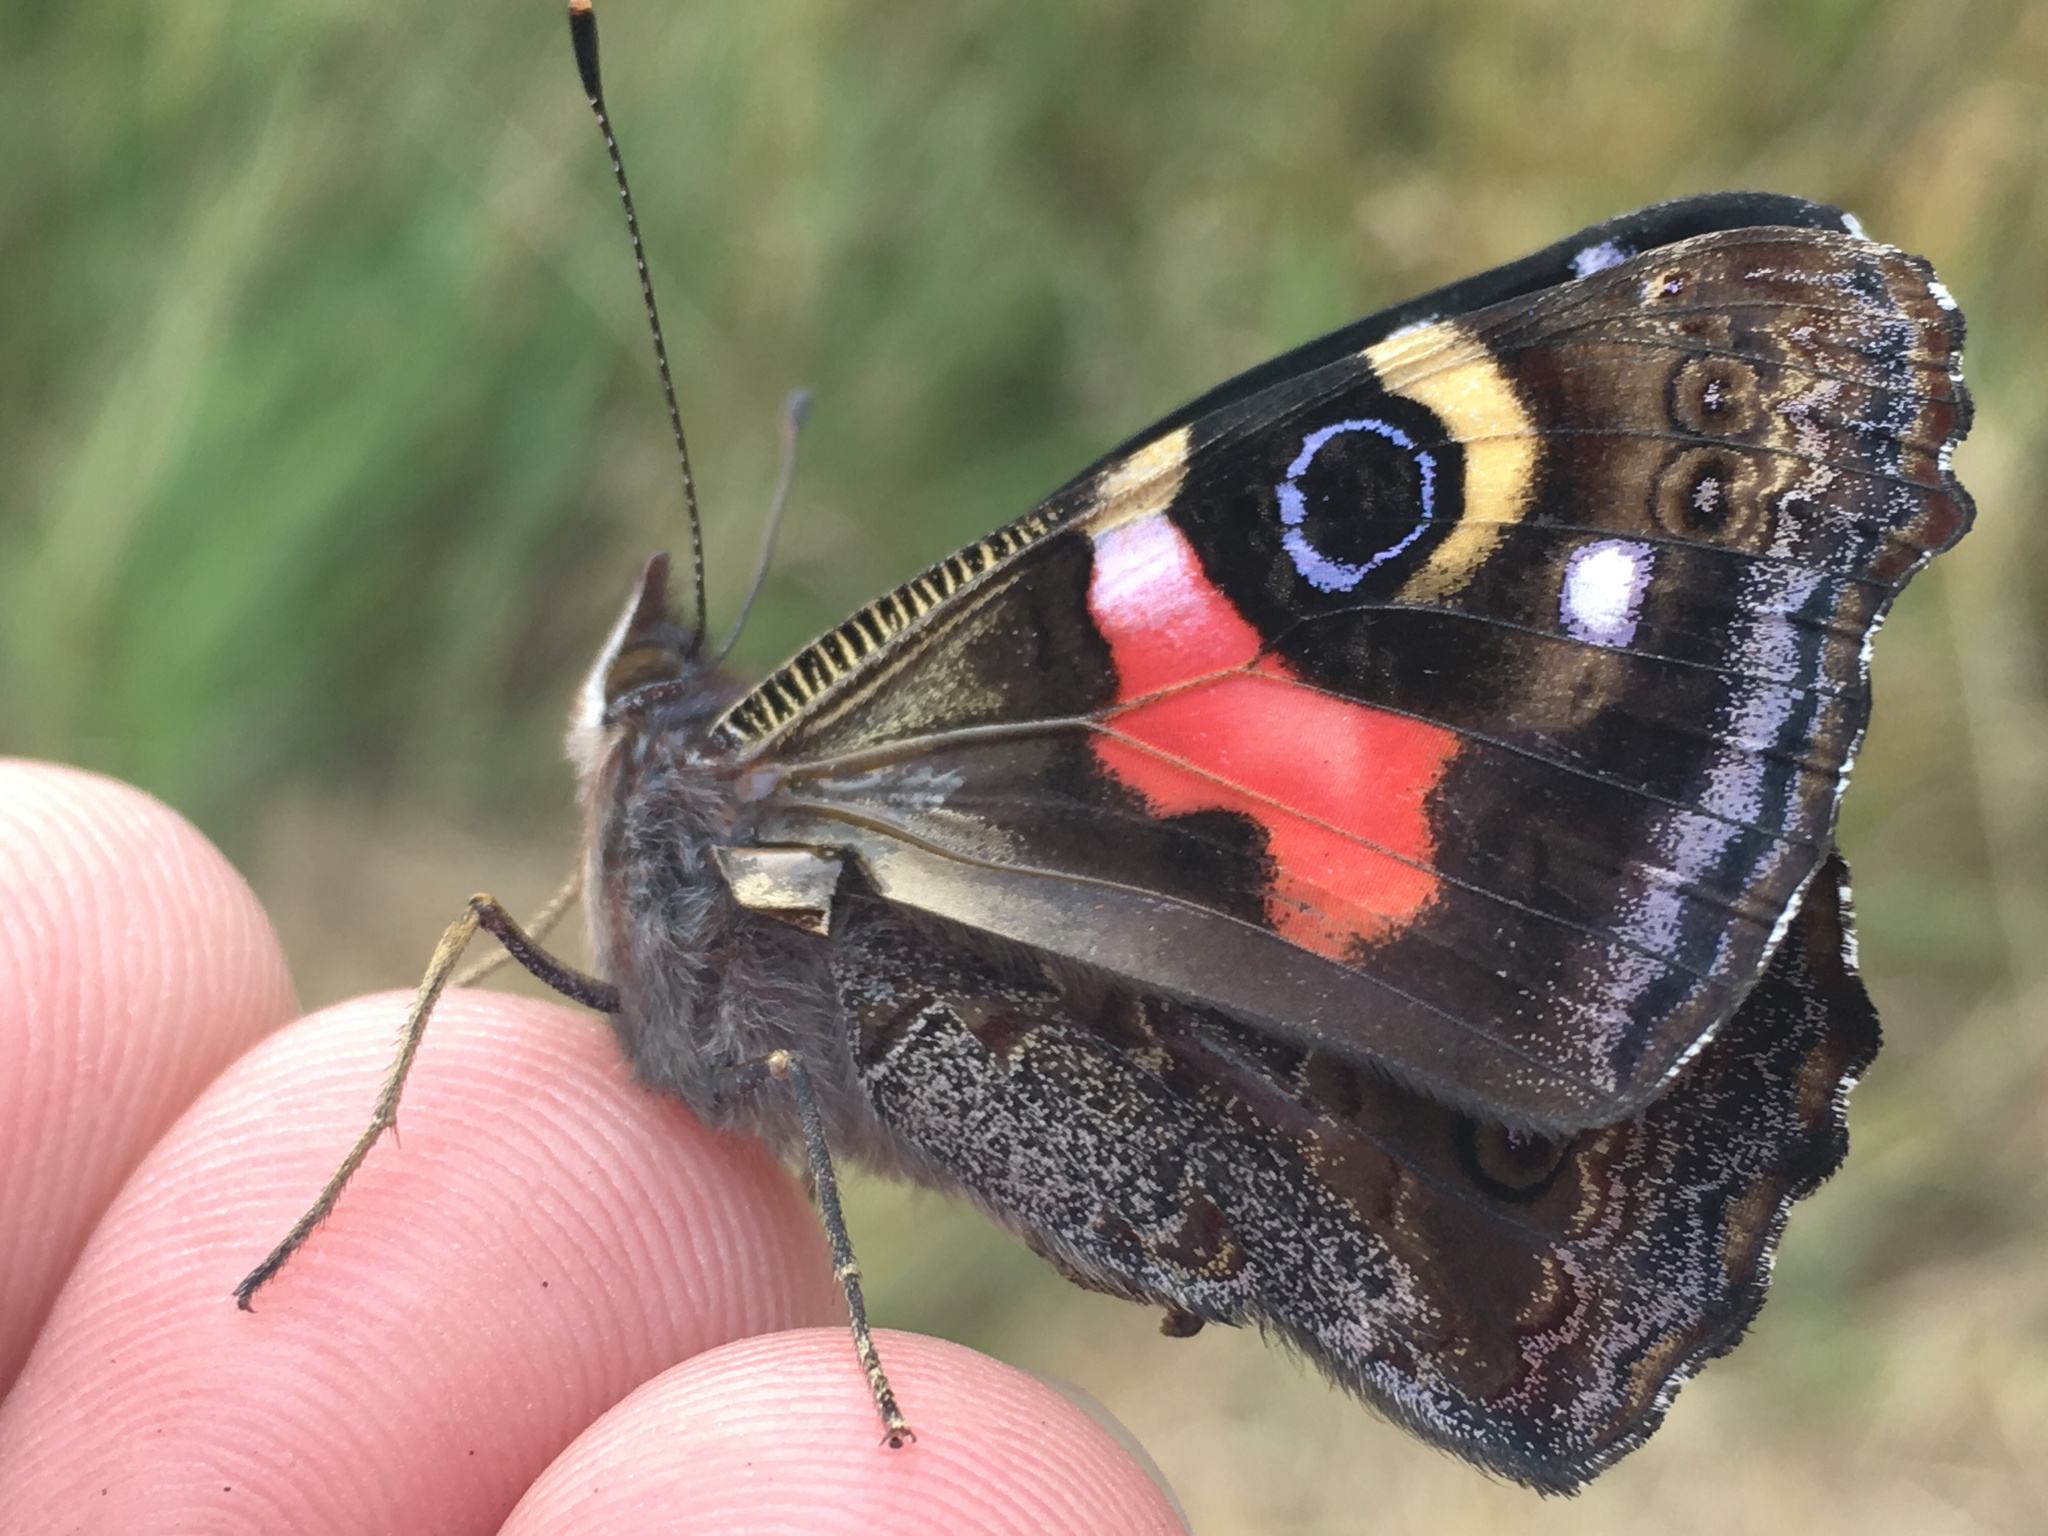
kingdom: Animalia
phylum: Arthropoda
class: Insecta
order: Lepidoptera
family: Nymphalidae
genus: Vanessa
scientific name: Vanessa gonerilla
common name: New zealand red admiral
